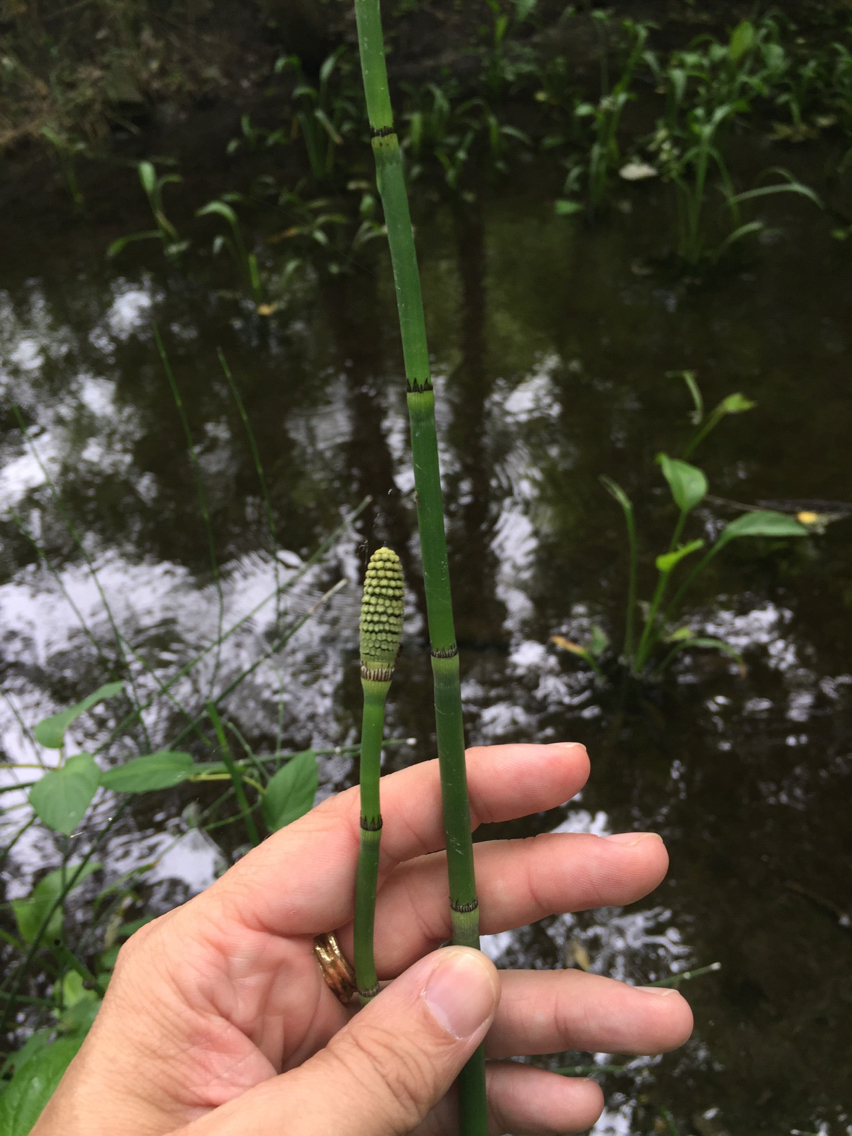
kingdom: Plantae
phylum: Tracheophyta
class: Polypodiopsida
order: Equisetales
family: Equisetaceae
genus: Equisetum
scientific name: Equisetum hyemale
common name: Rough horsetail
